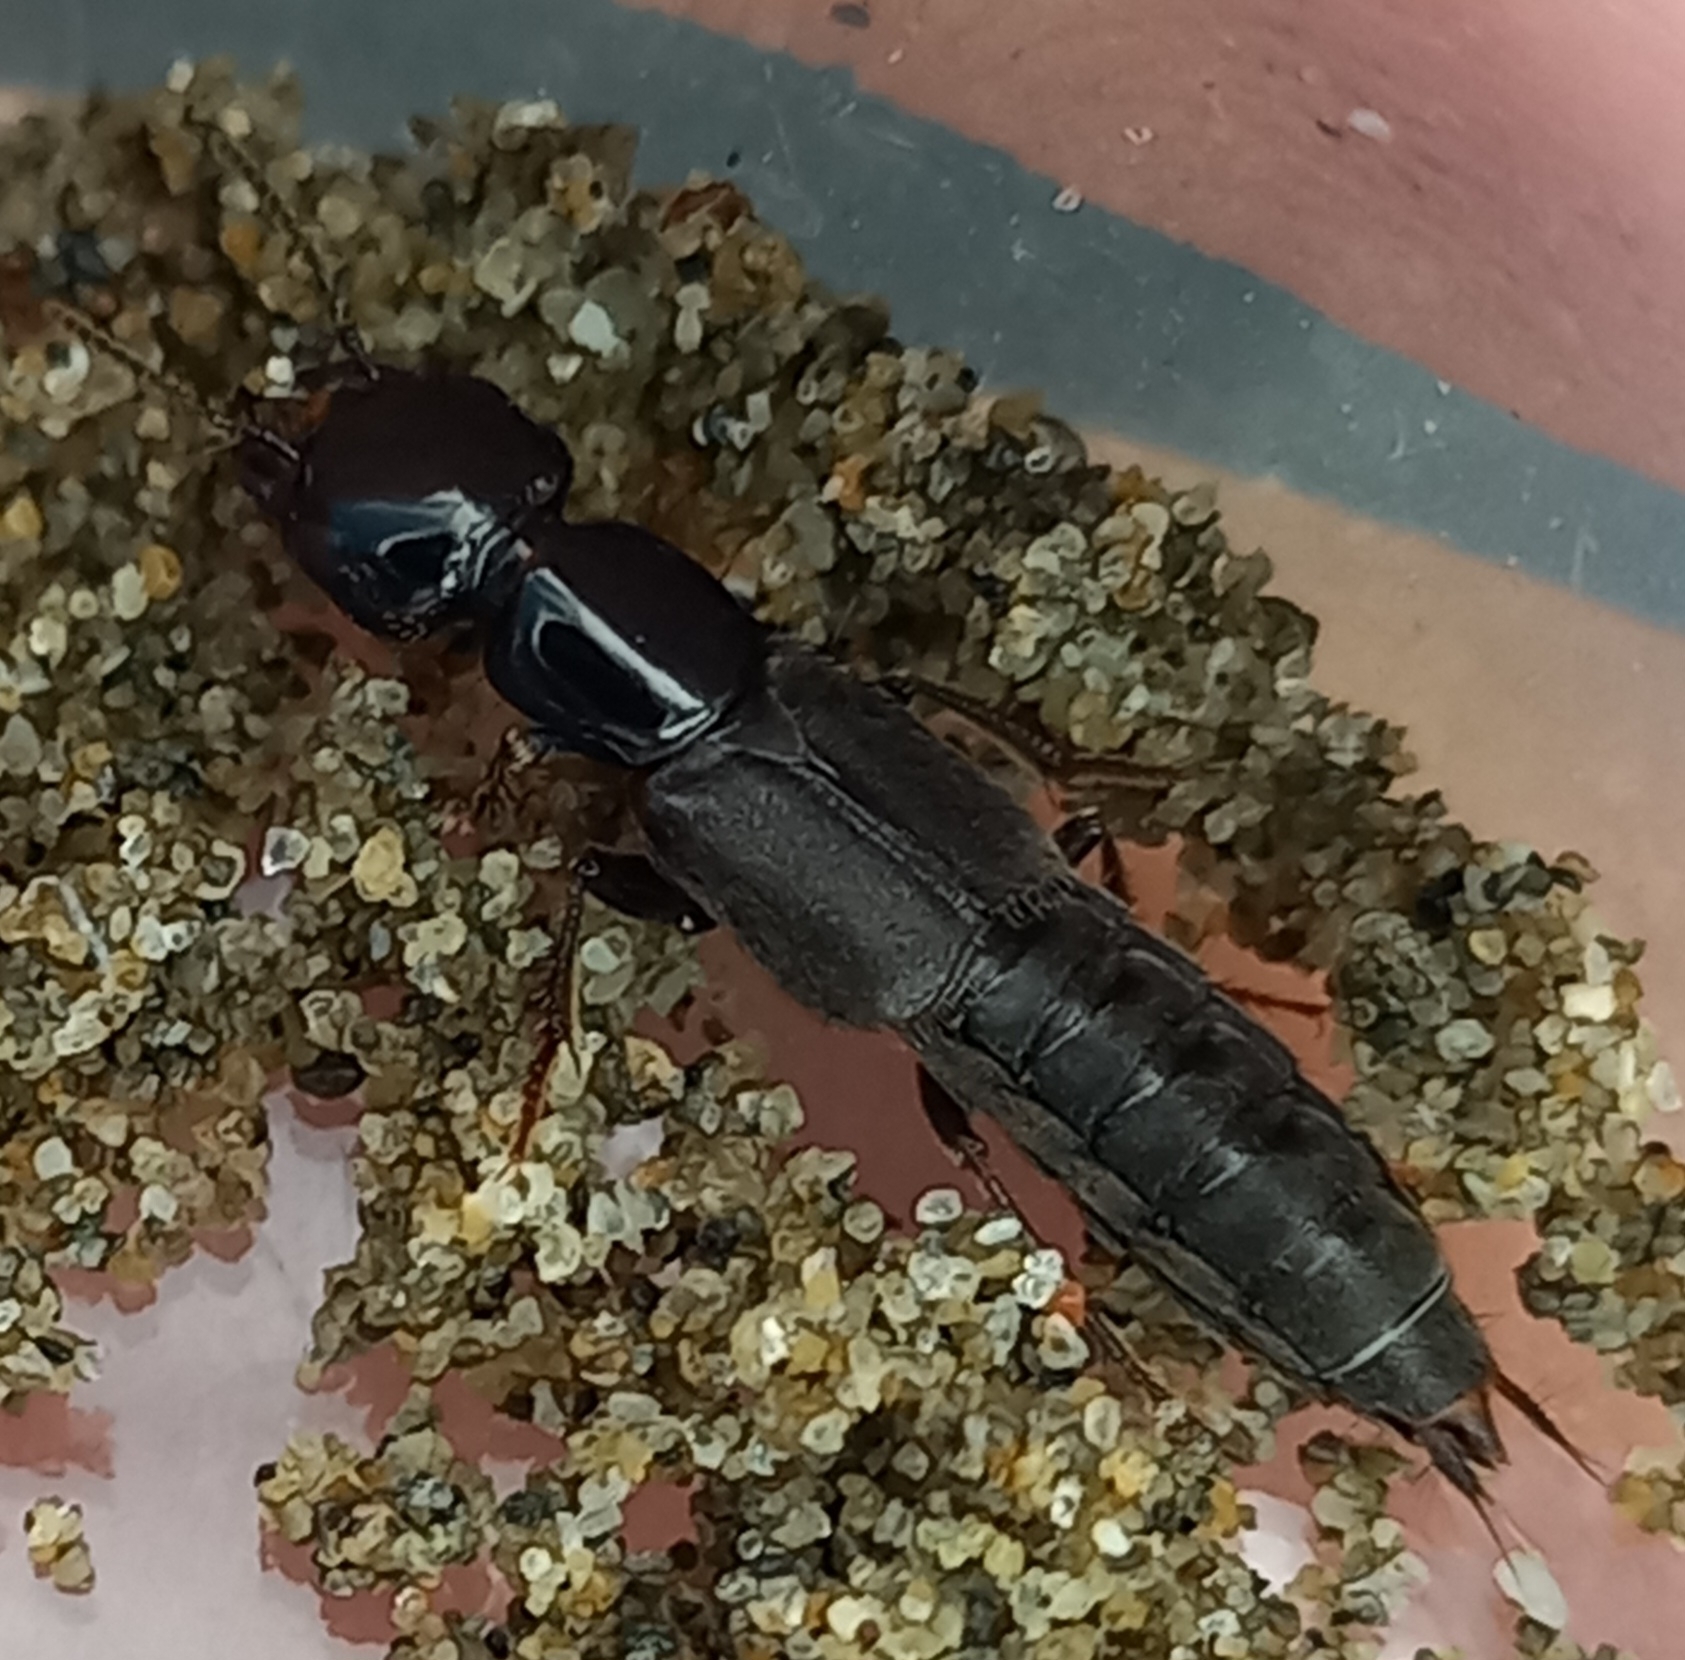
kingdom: Animalia
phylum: Arthropoda
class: Insecta
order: Coleoptera
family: Staphylinidae
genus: Cafius
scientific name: Cafius litoreus
